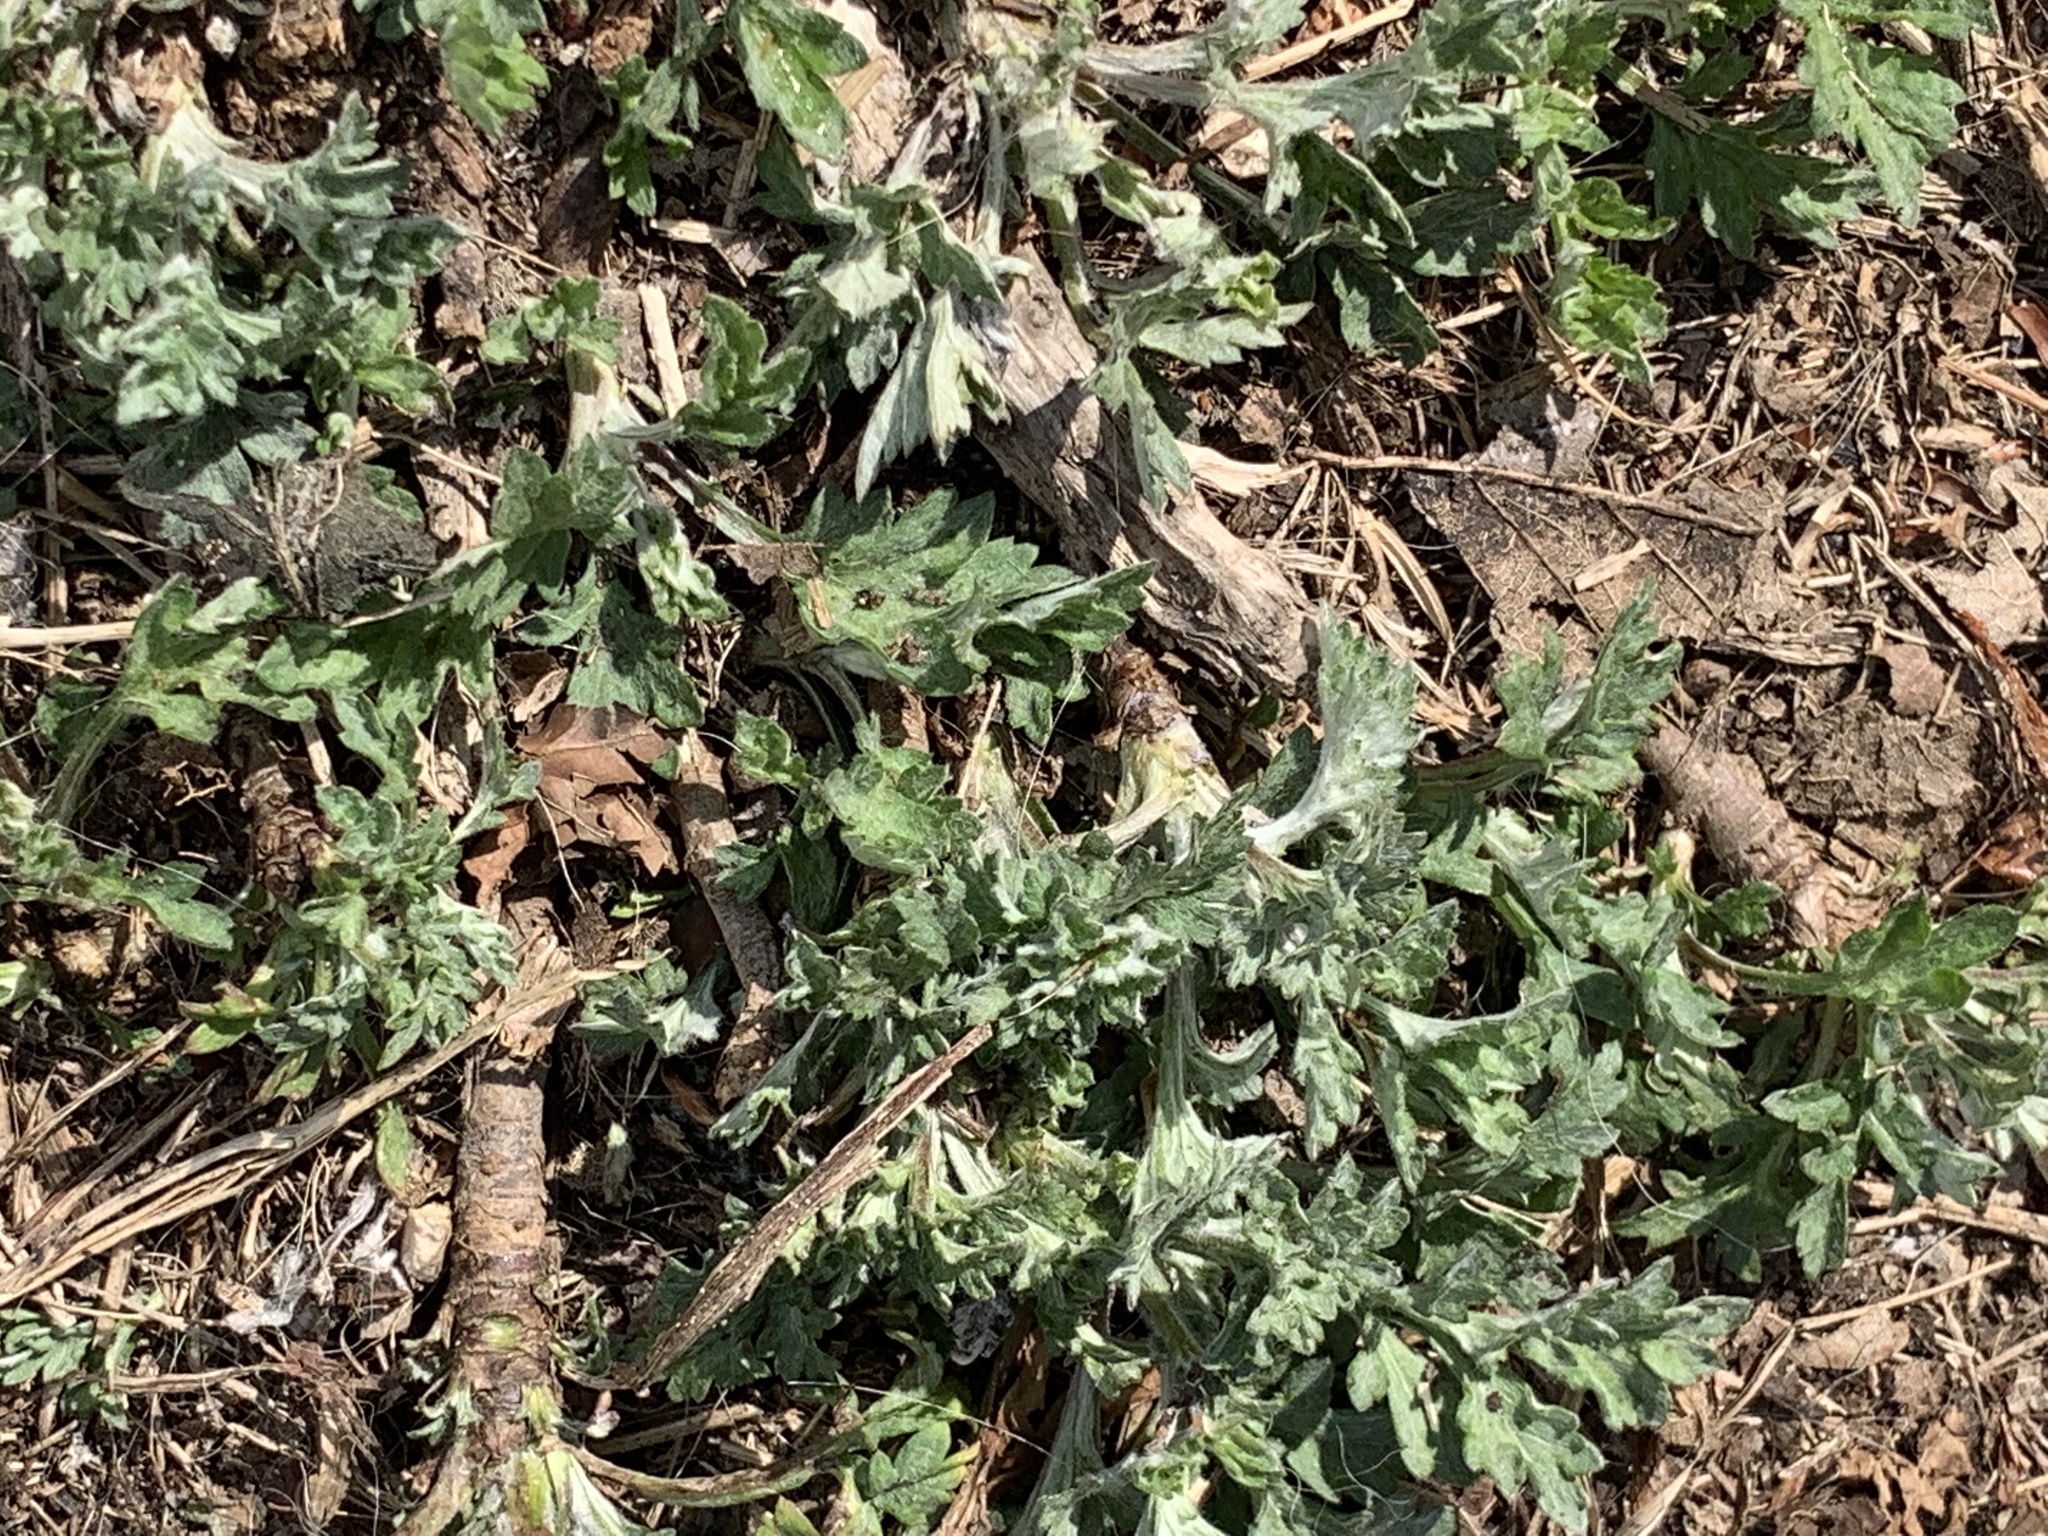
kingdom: Plantae
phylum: Tracheophyta
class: Magnoliopsida
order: Asterales
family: Asteraceae
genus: Artemisia
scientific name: Artemisia vulgaris
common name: Mugwort
